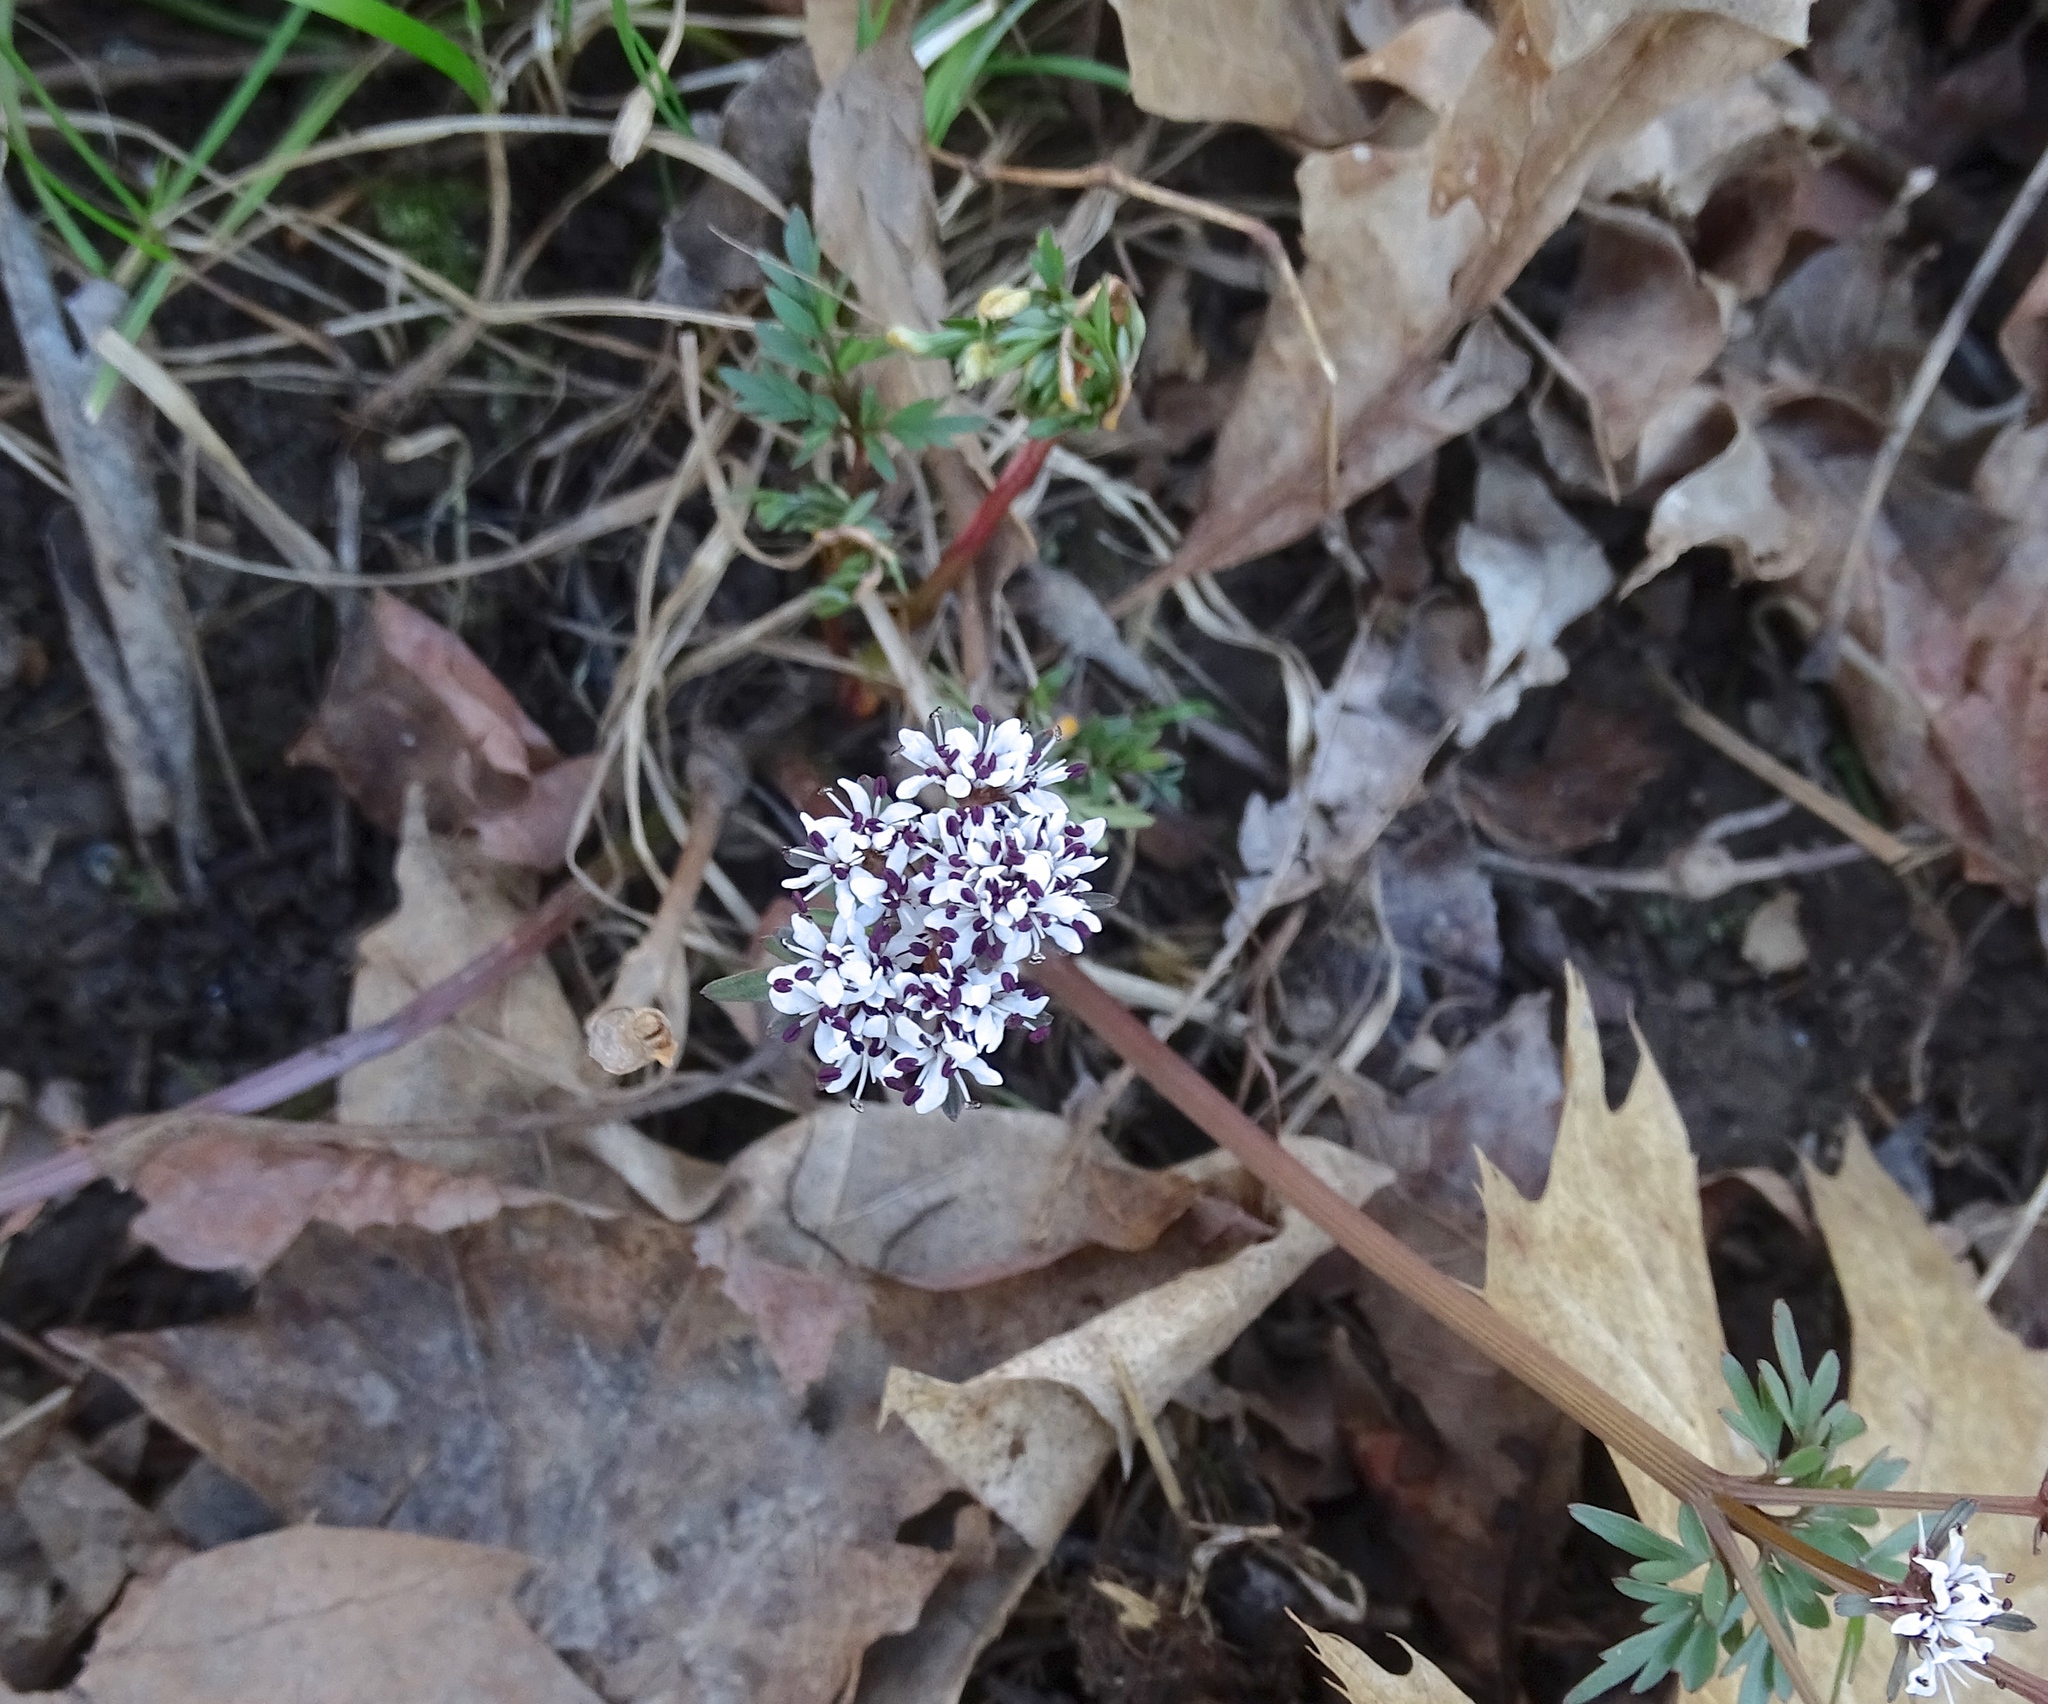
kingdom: Plantae
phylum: Tracheophyta
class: Magnoliopsida
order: Apiales
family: Apiaceae
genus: Erigenia
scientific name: Erigenia bulbosa
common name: Pepper-and-salt
